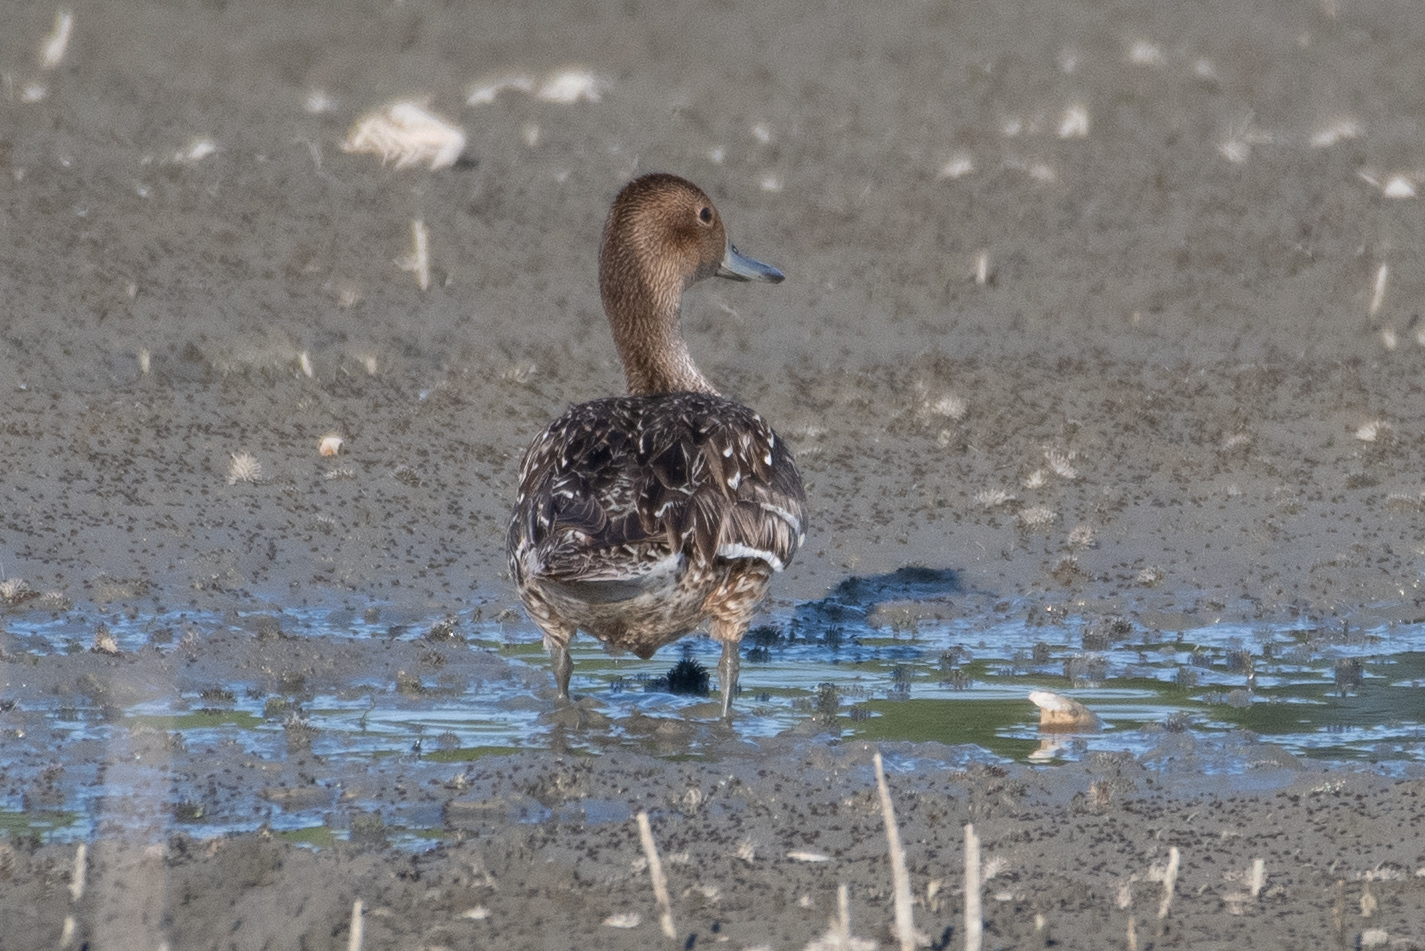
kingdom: Animalia
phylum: Chordata
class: Aves
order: Anseriformes
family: Anatidae
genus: Anas
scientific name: Anas acuta
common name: Northern pintail
